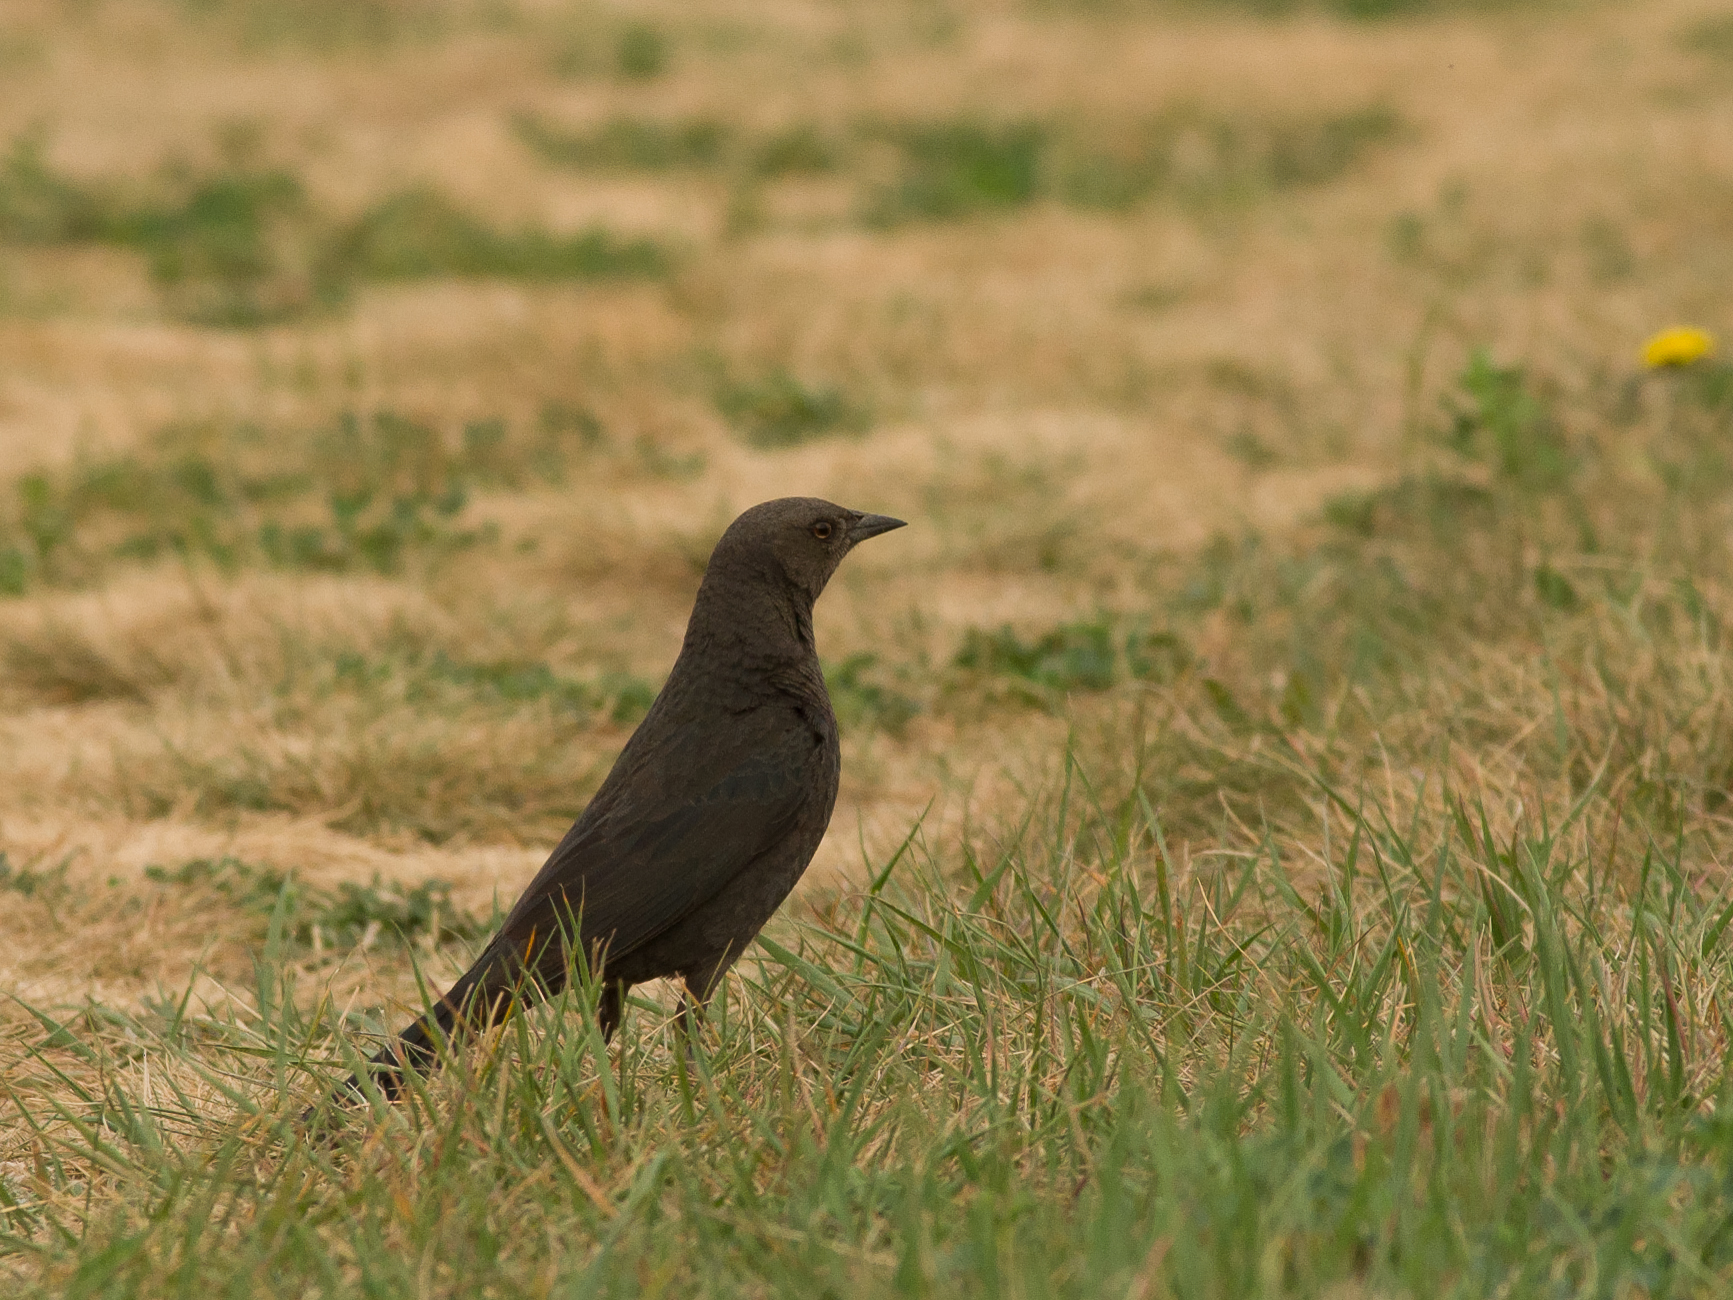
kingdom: Animalia
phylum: Chordata
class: Aves
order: Passeriformes
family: Icteridae
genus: Euphagus
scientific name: Euphagus cyanocephalus
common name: Brewer's blackbird
